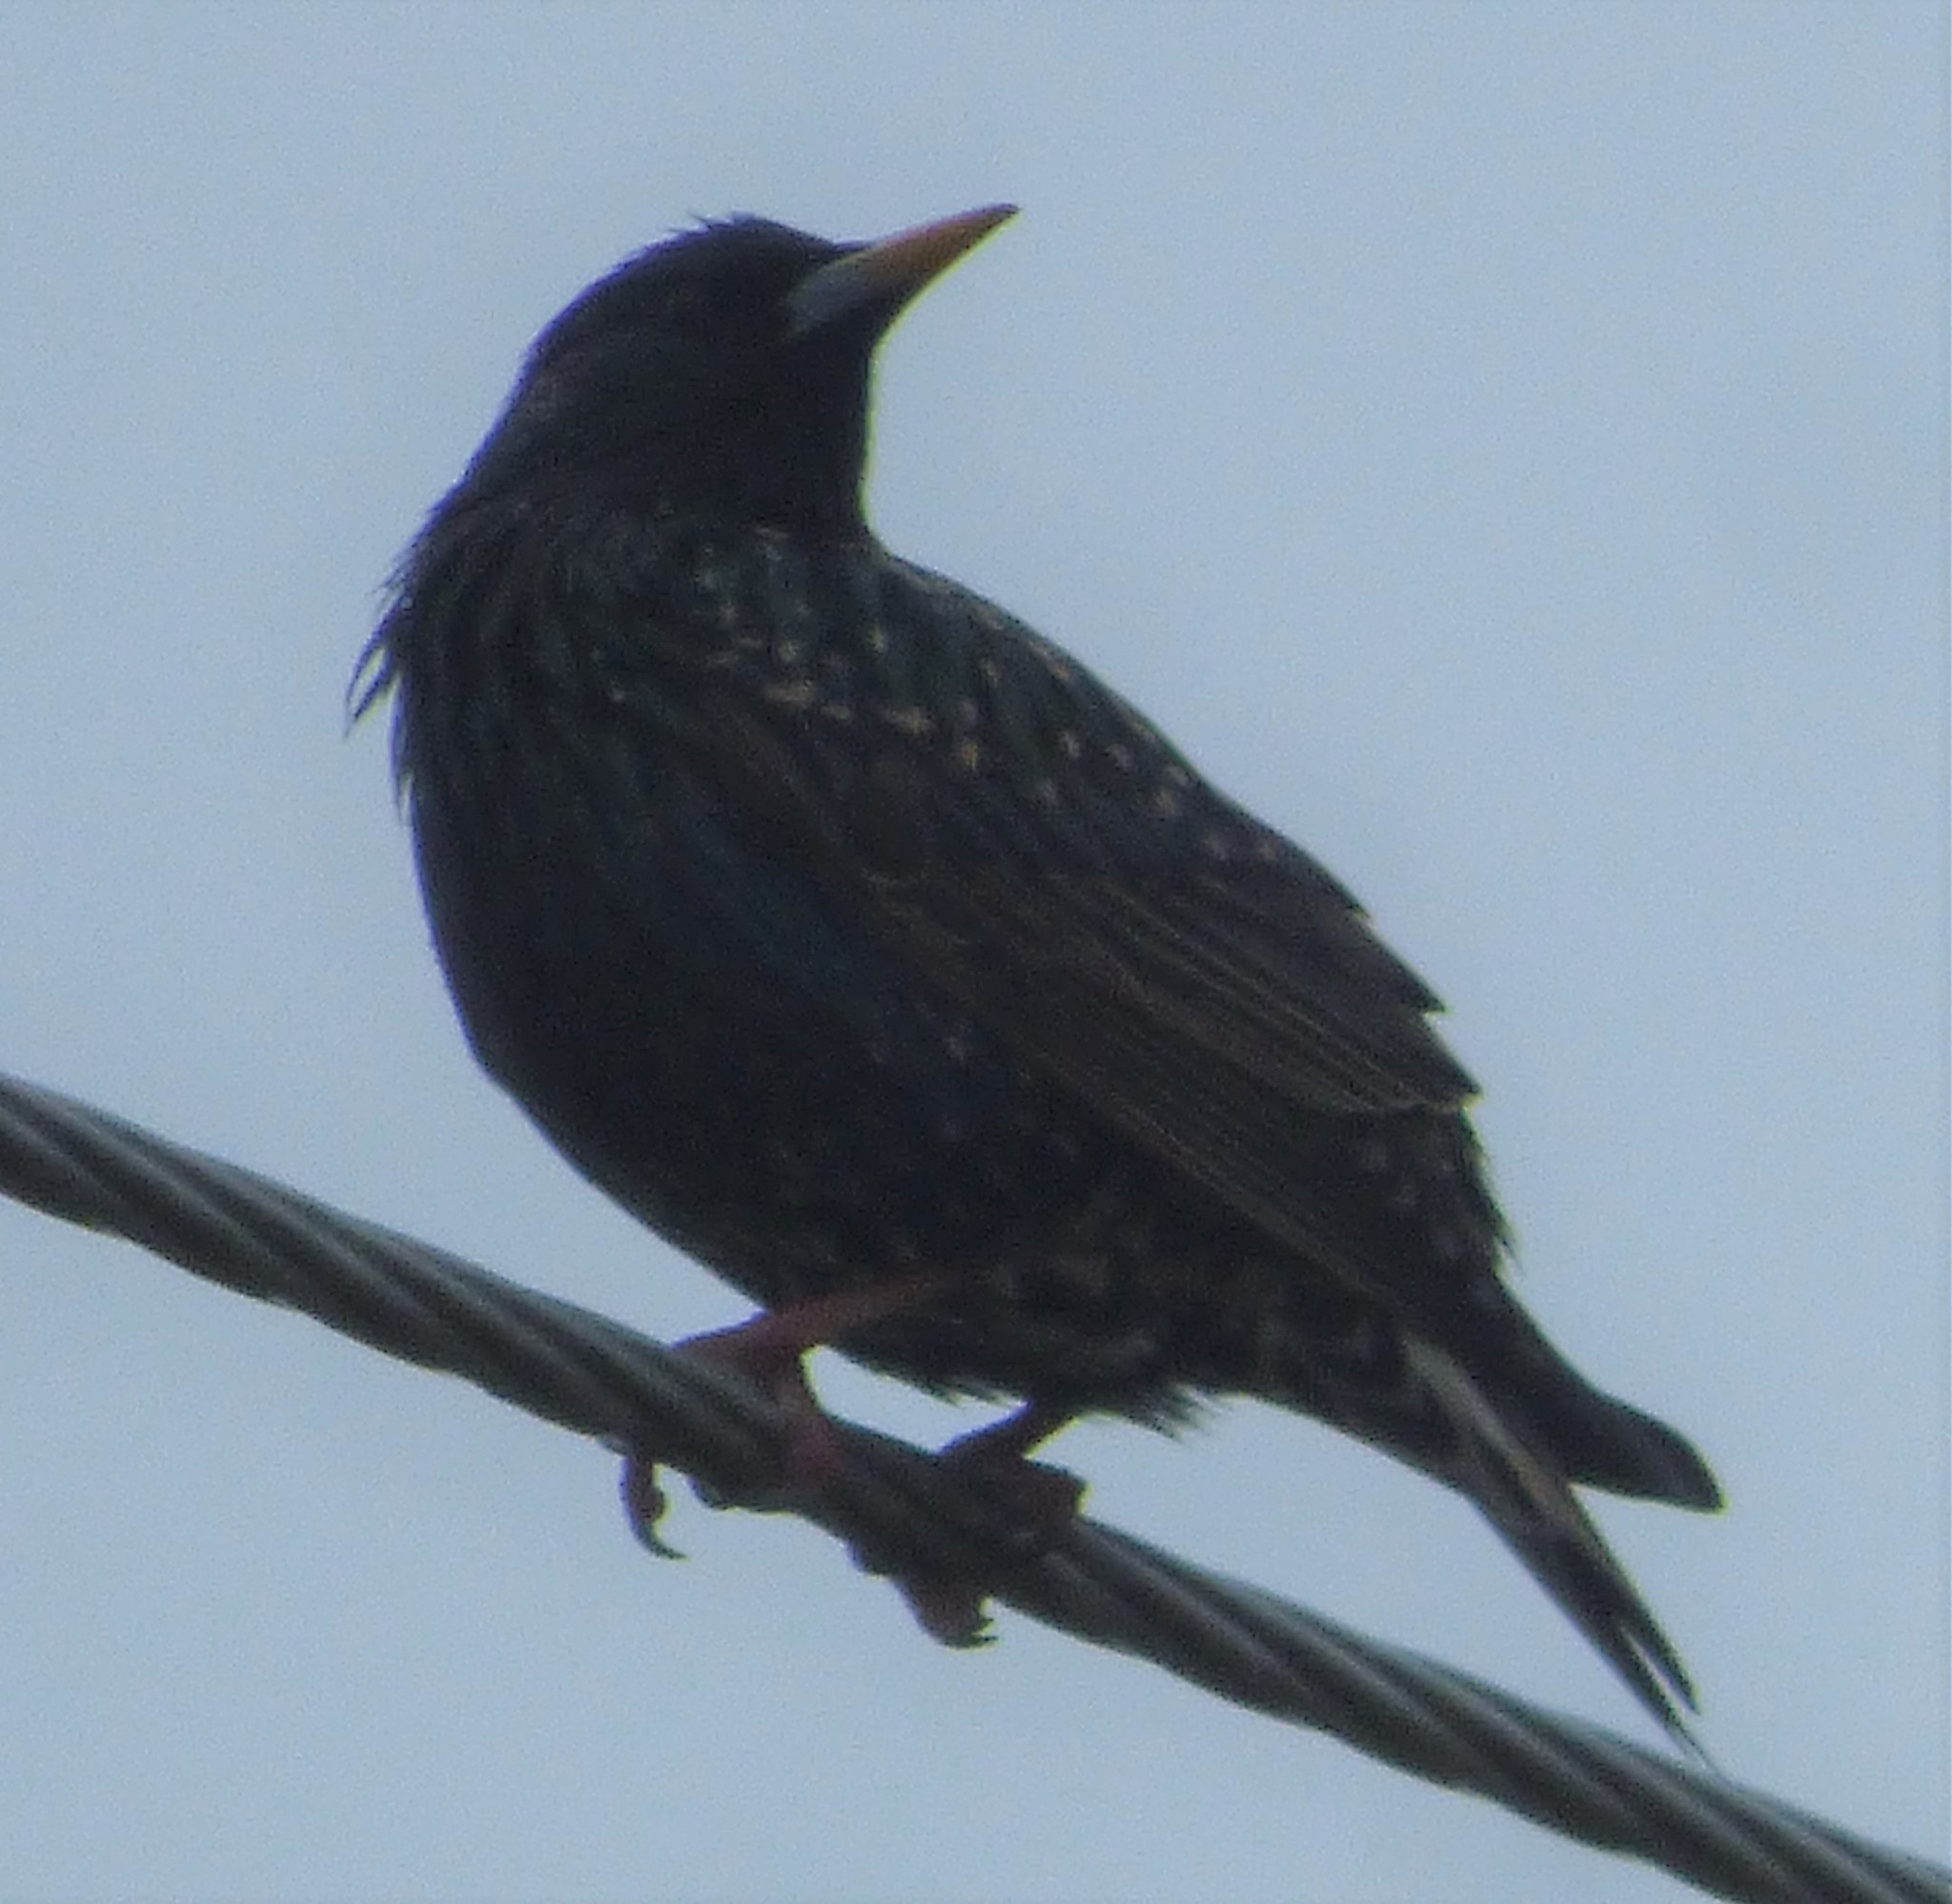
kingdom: Animalia
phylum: Chordata
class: Aves
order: Passeriformes
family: Sturnidae
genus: Sturnus
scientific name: Sturnus vulgaris
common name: Common starling
